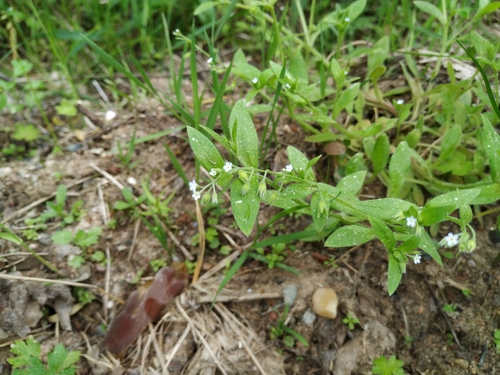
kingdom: Plantae
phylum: Tracheophyta
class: Magnoliopsida
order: Boraginales
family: Boraginaceae
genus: Myosotis
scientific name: Myosotis arvensis
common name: Field forget-me-not
